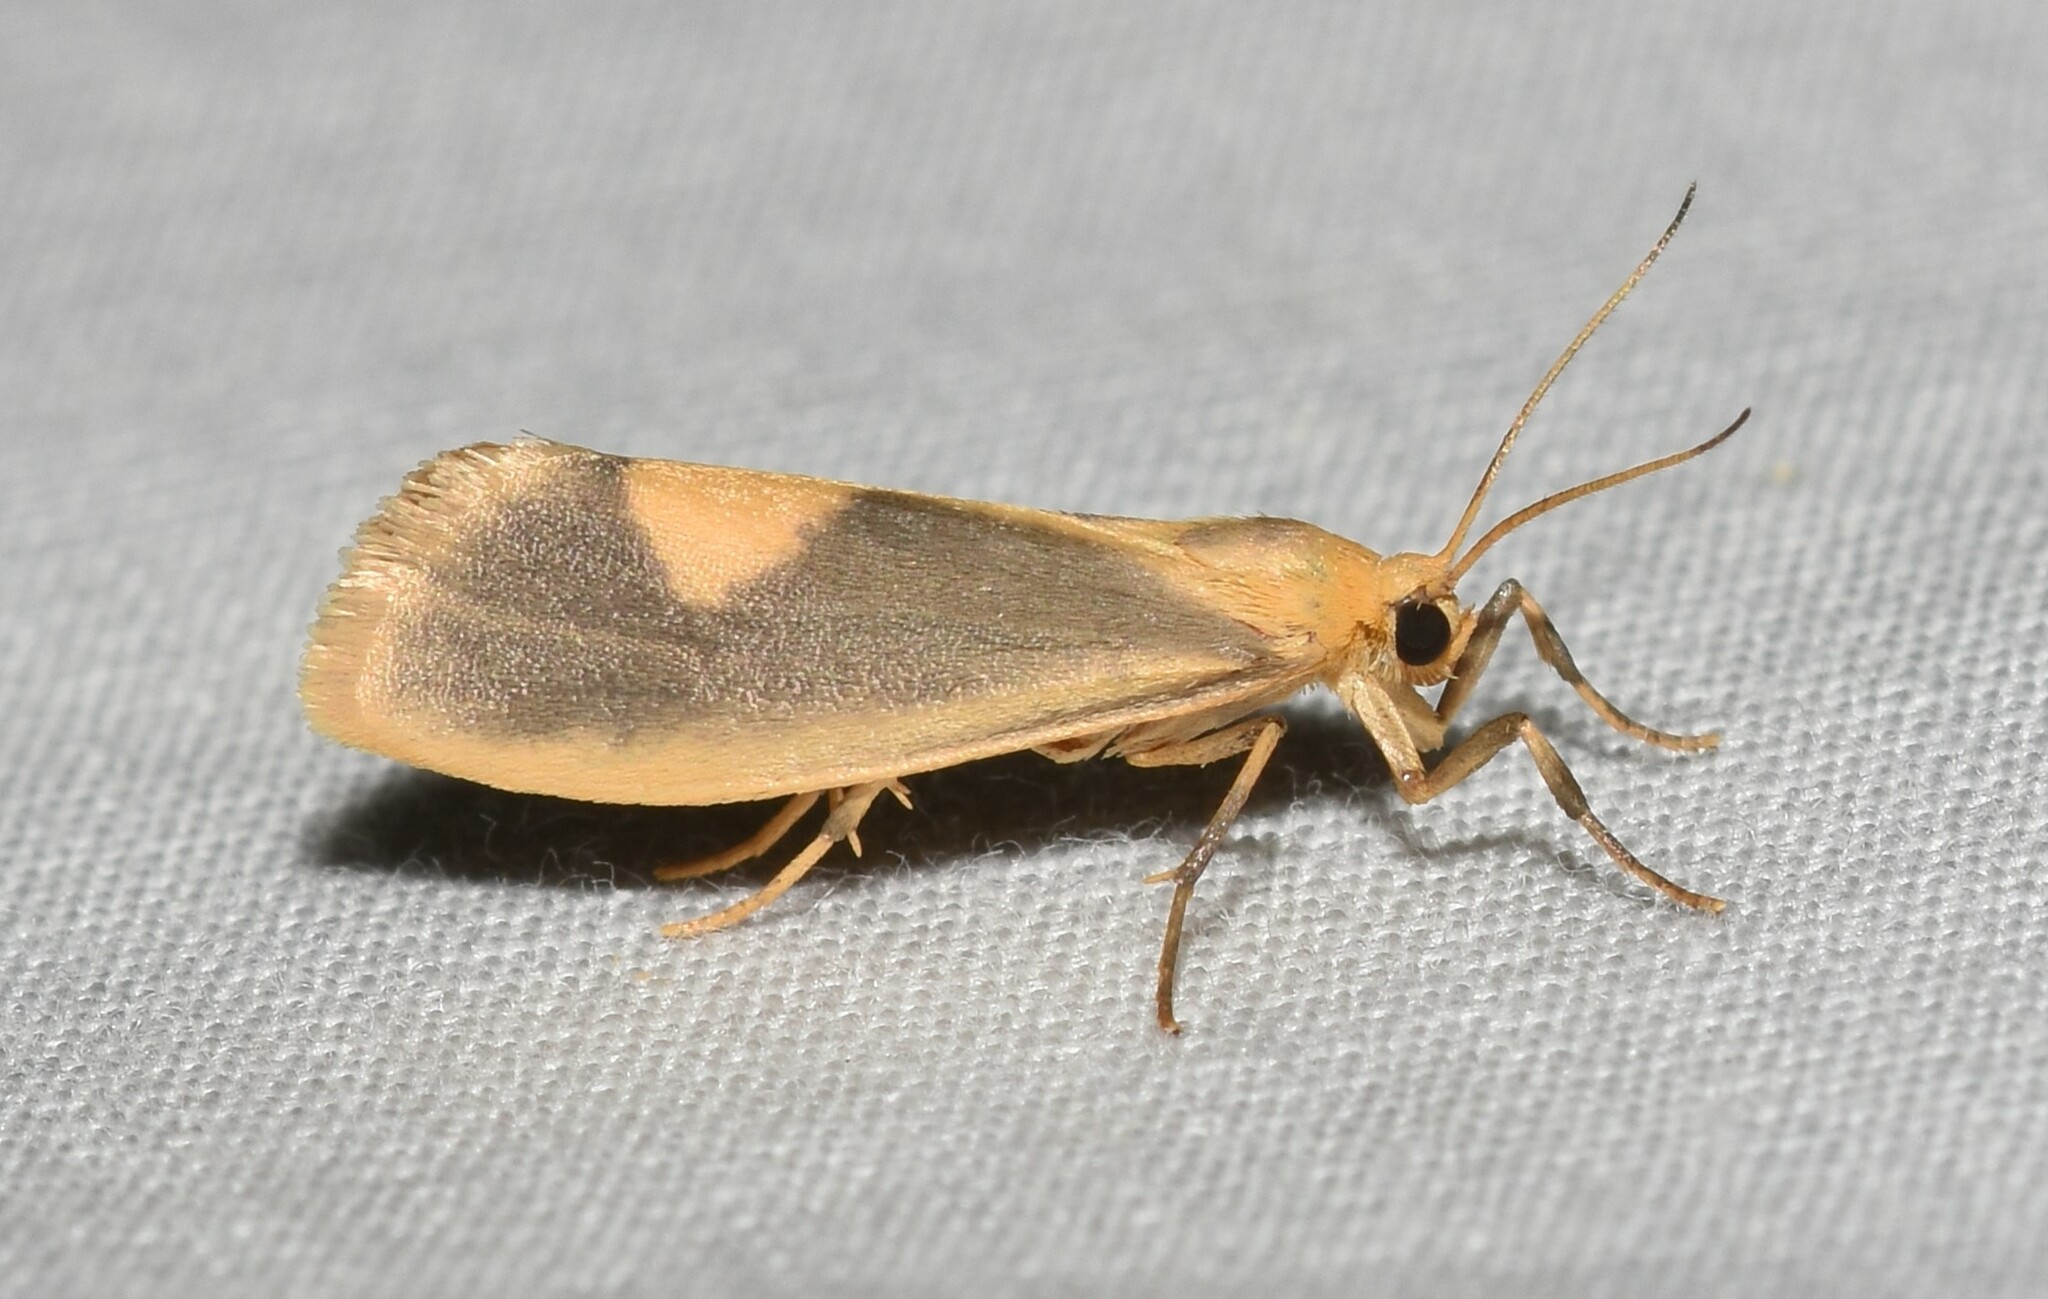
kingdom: Animalia
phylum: Arthropoda
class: Insecta
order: Lepidoptera
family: Erebidae
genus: Cisthene
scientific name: Cisthene plumbea
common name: Lead colored lichen moth
